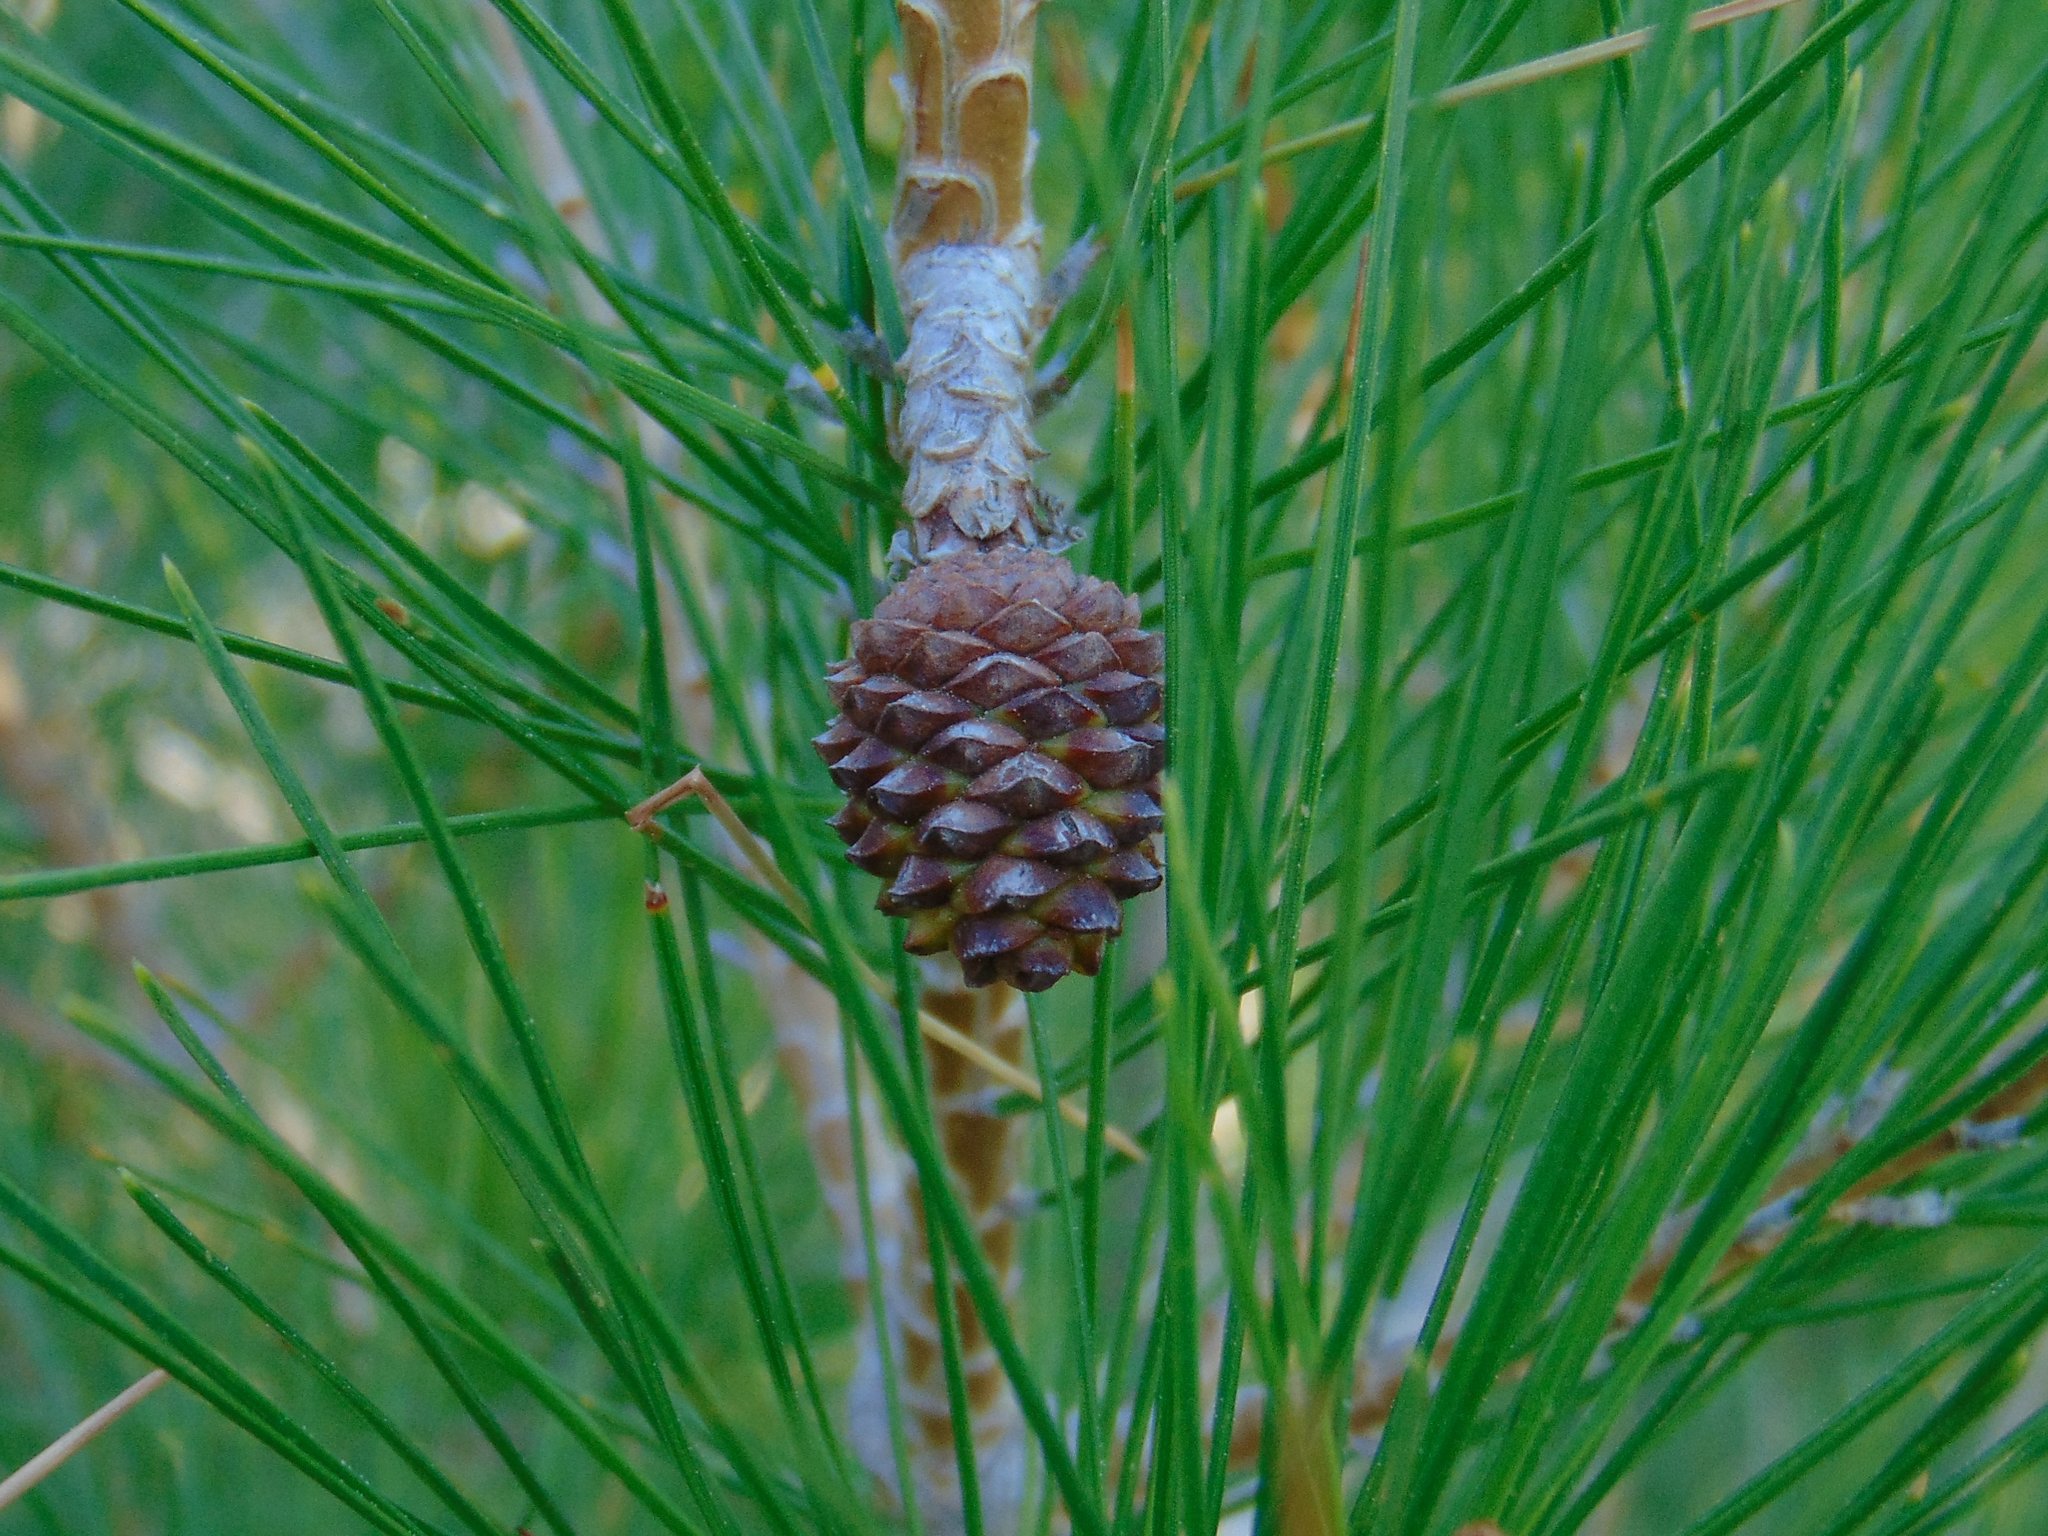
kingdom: Plantae
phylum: Tracheophyta
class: Pinopsida
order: Pinales
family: Pinaceae
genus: Pinus
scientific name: Pinus halepensis
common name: Aleppo pine
